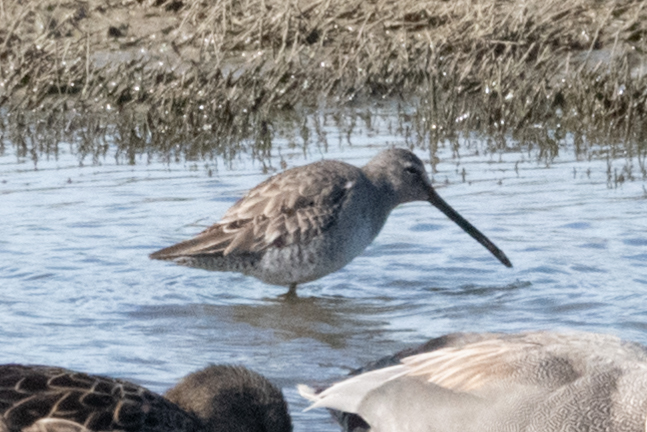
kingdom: Animalia
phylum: Chordata
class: Aves
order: Charadriiformes
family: Scolopacidae
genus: Limnodromus
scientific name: Limnodromus scolopaceus
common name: Long-billed dowitcher
